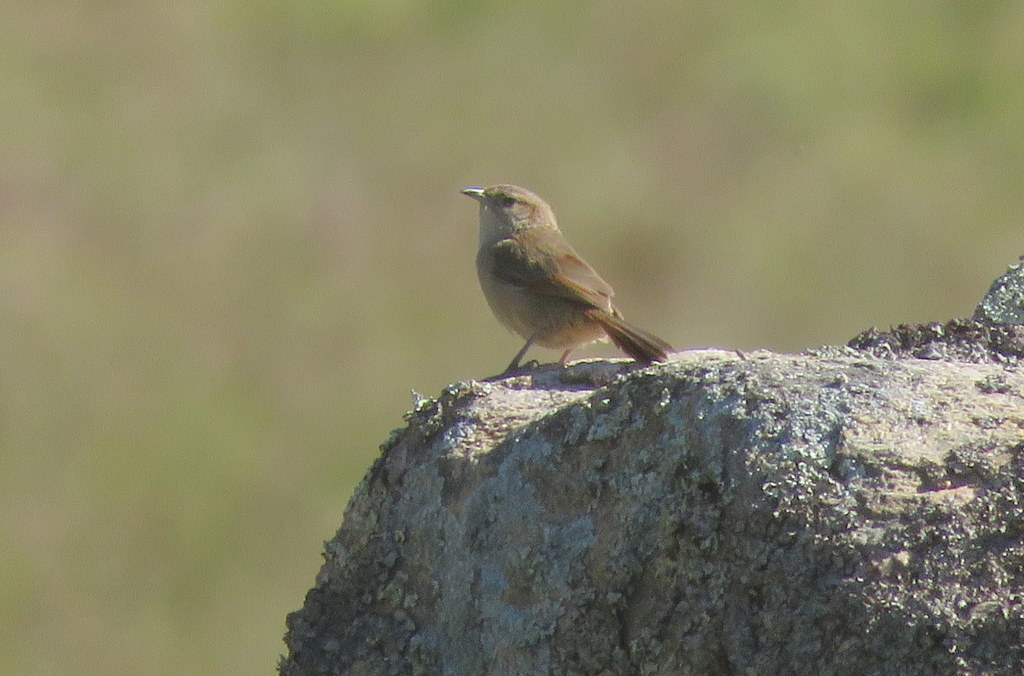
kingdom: Animalia
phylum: Chordata
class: Aves
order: Passeriformes
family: Furnariidae
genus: Phacellodomus
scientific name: Phacellodomus striaticeps
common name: Streak-fronted thornbird
